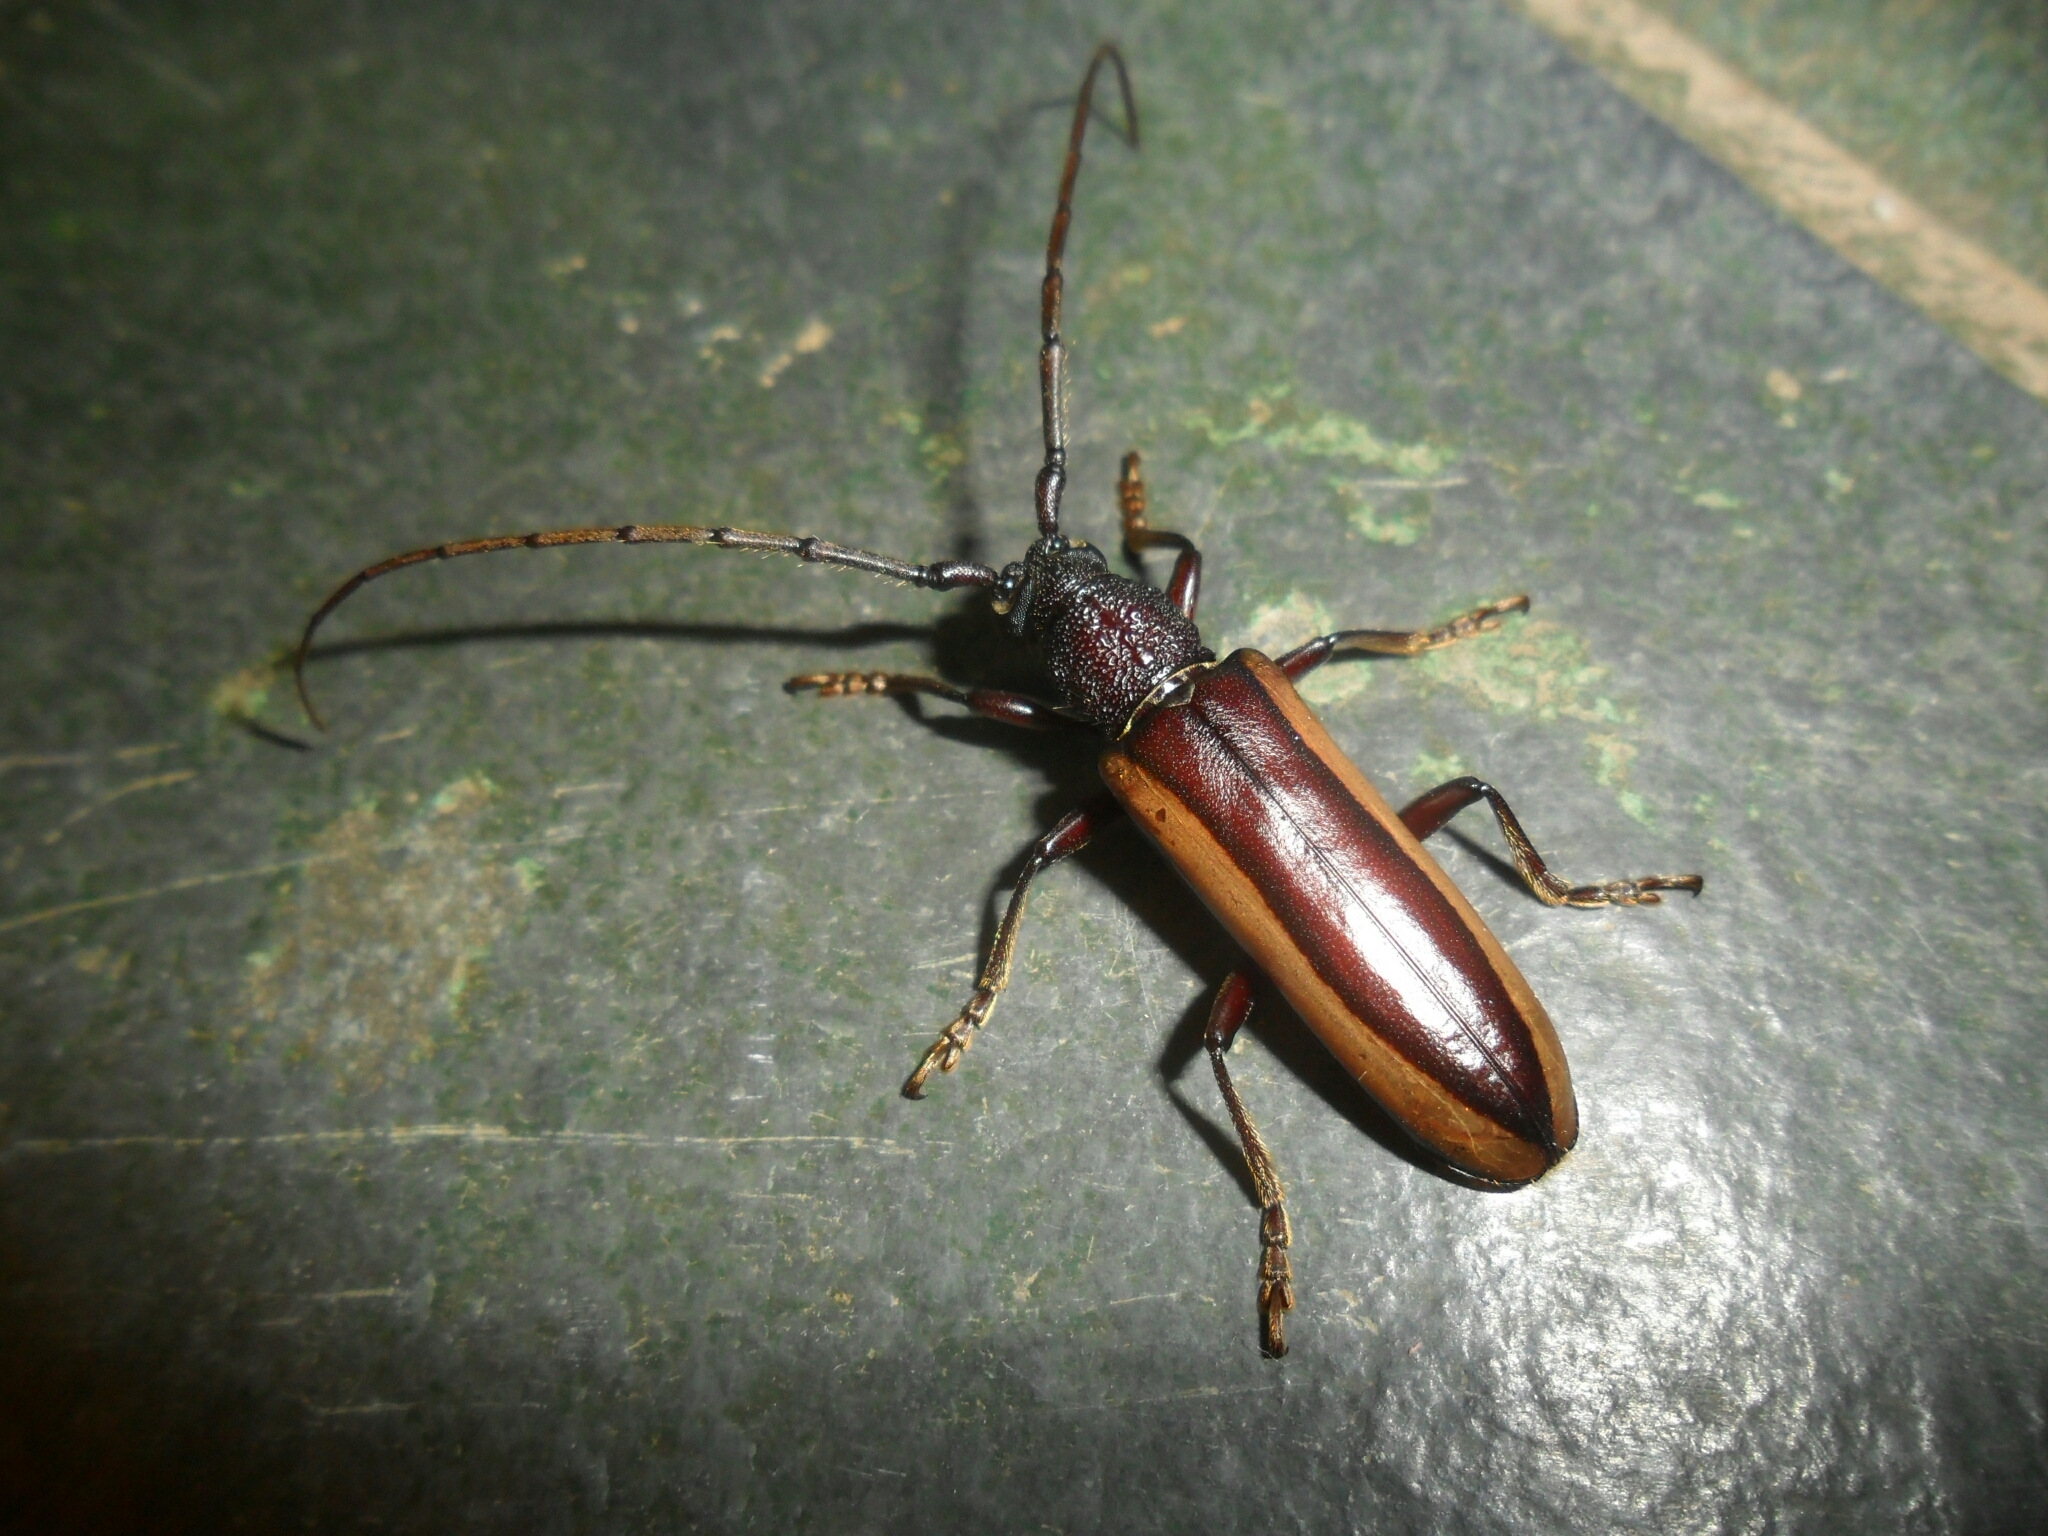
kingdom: Animalia
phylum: Arthropoda
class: Insecta
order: Coleoptera
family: Cerambycidae
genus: Poeciloxestia
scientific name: Poeciloxestia travassosi
